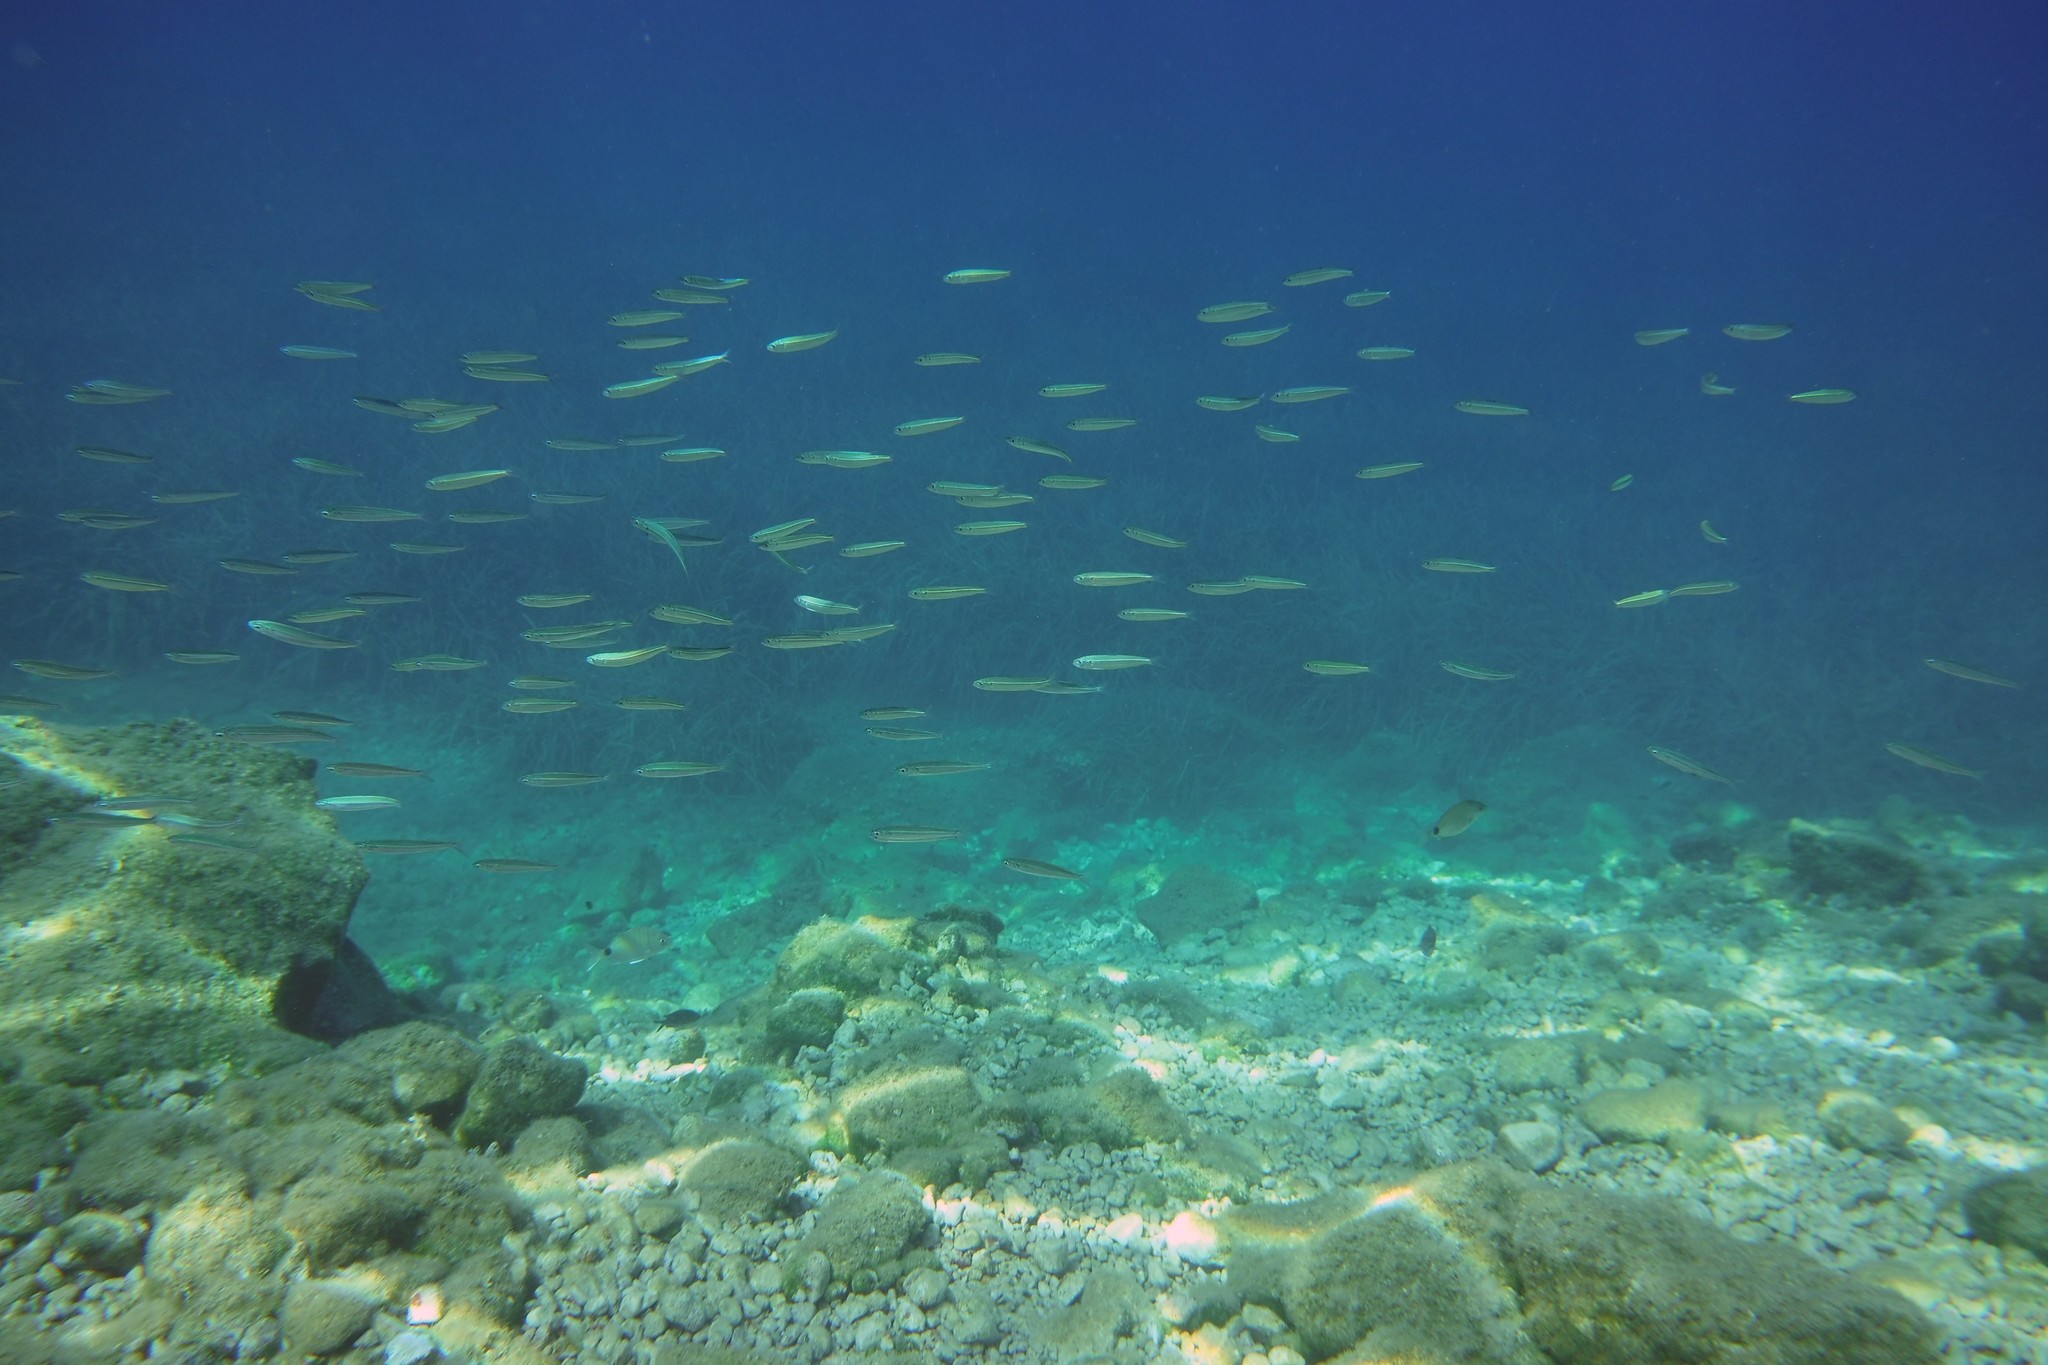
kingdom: Animalia
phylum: Chordata
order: Atheriniformes
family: Atherinidae
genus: Atherina
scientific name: Atherina
